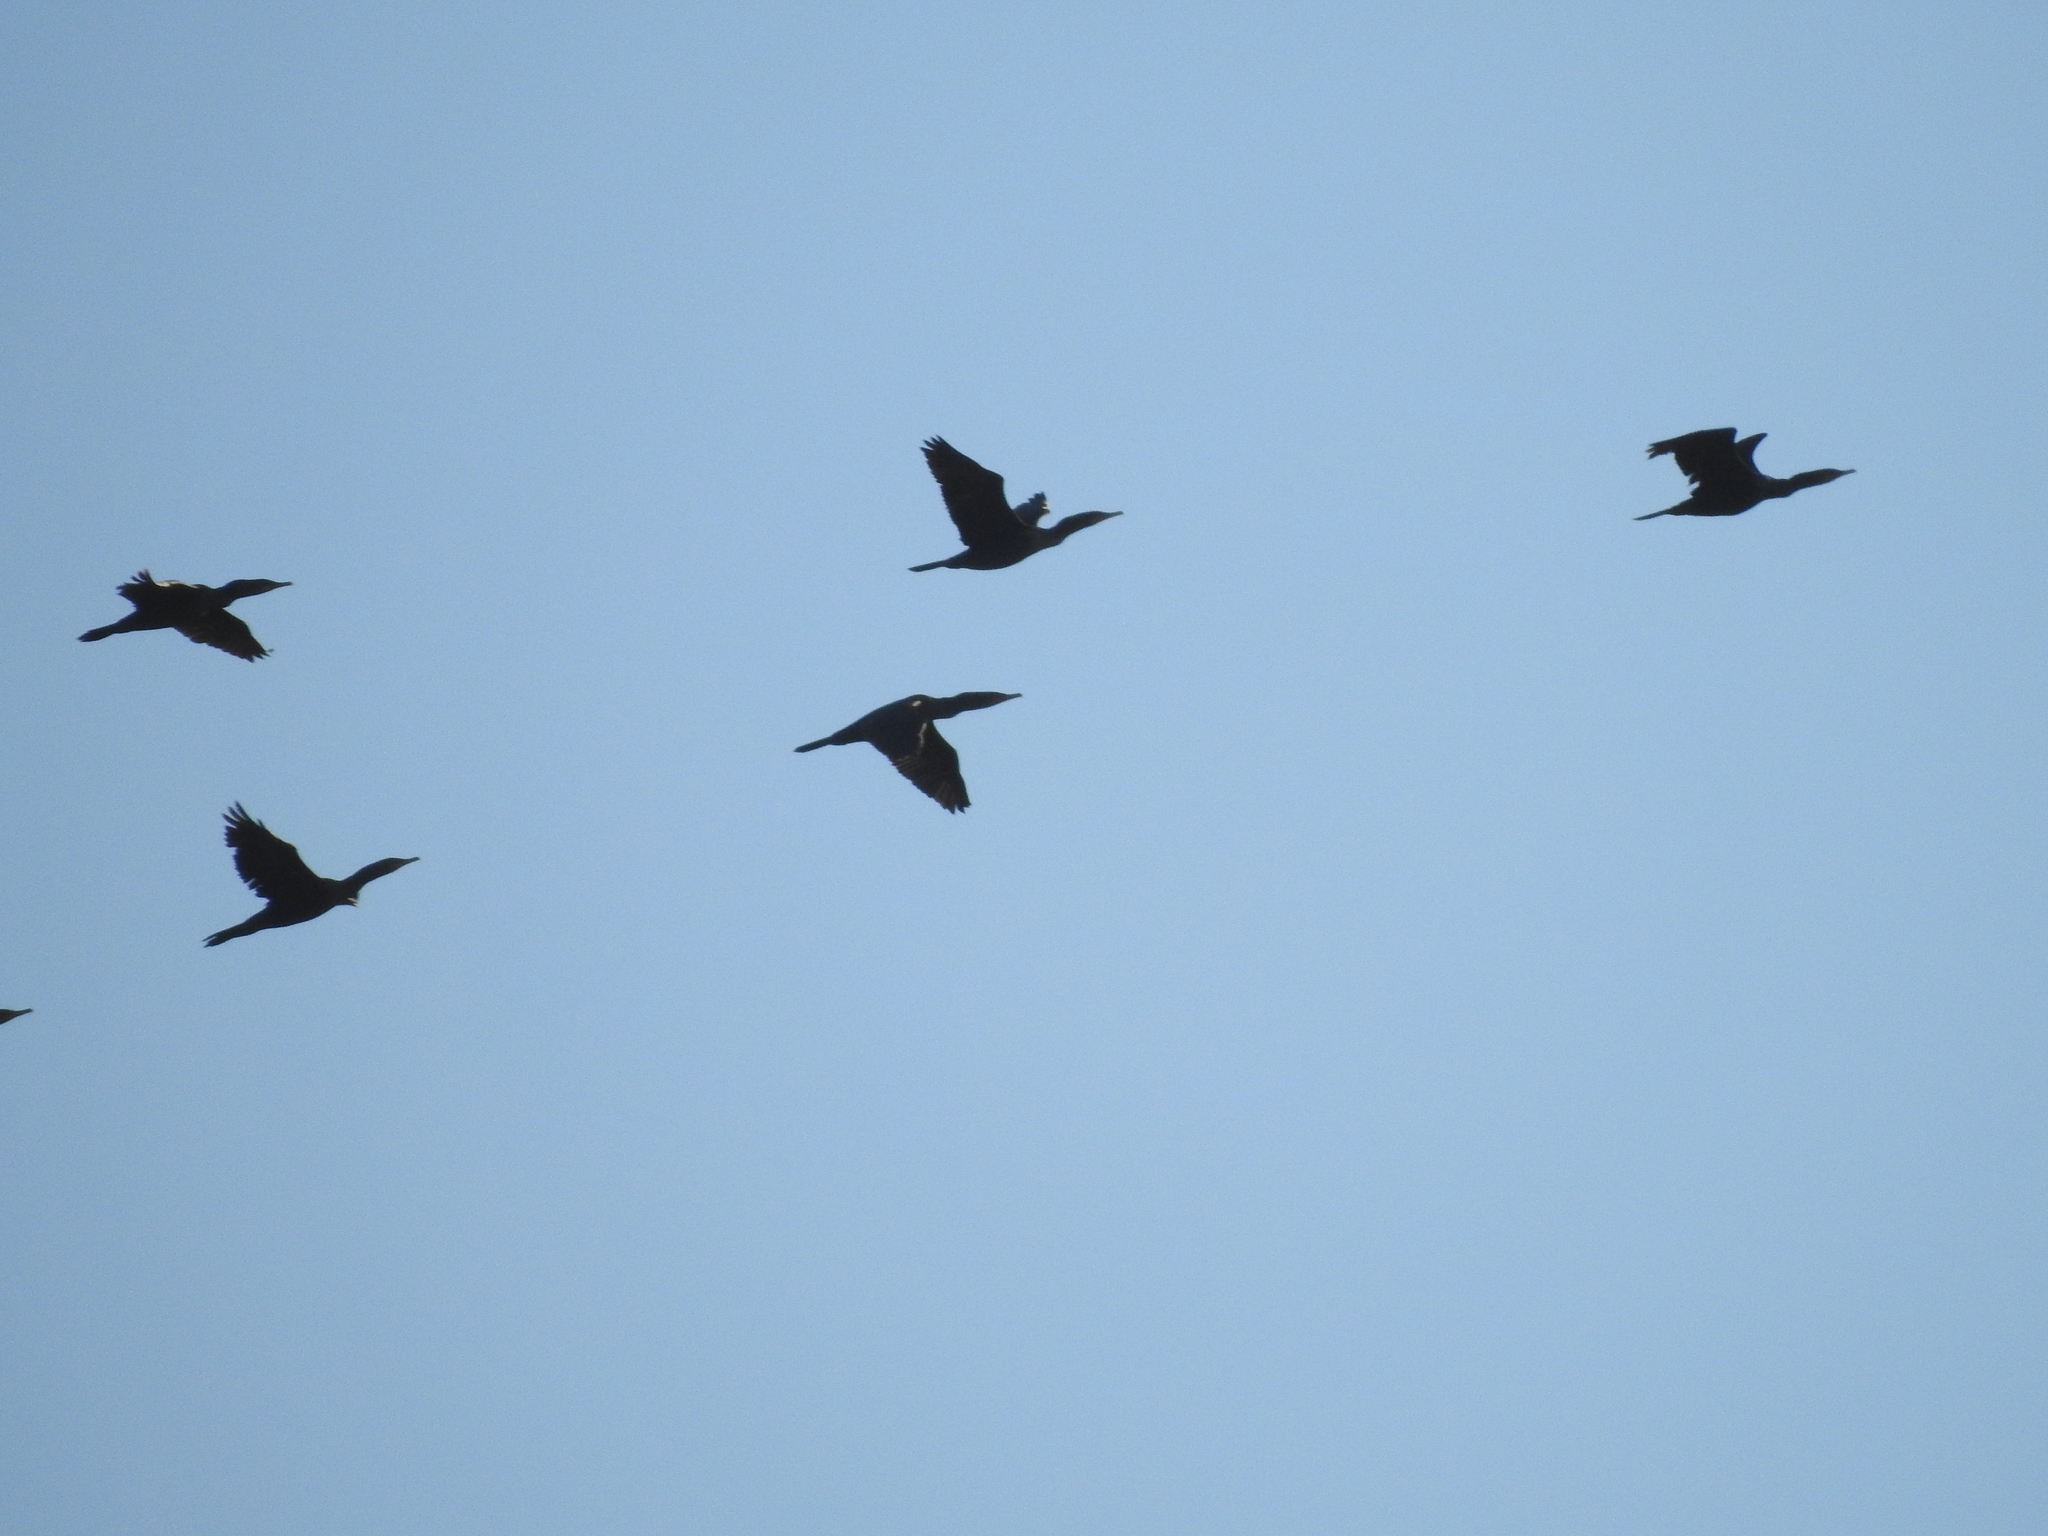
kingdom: Animalia
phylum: Chordata
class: Aves
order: Suliformes
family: Phalacrocoracidae
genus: Phalacrocorax
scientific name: Phalacrocorax auritus
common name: Double-crested cormorant
